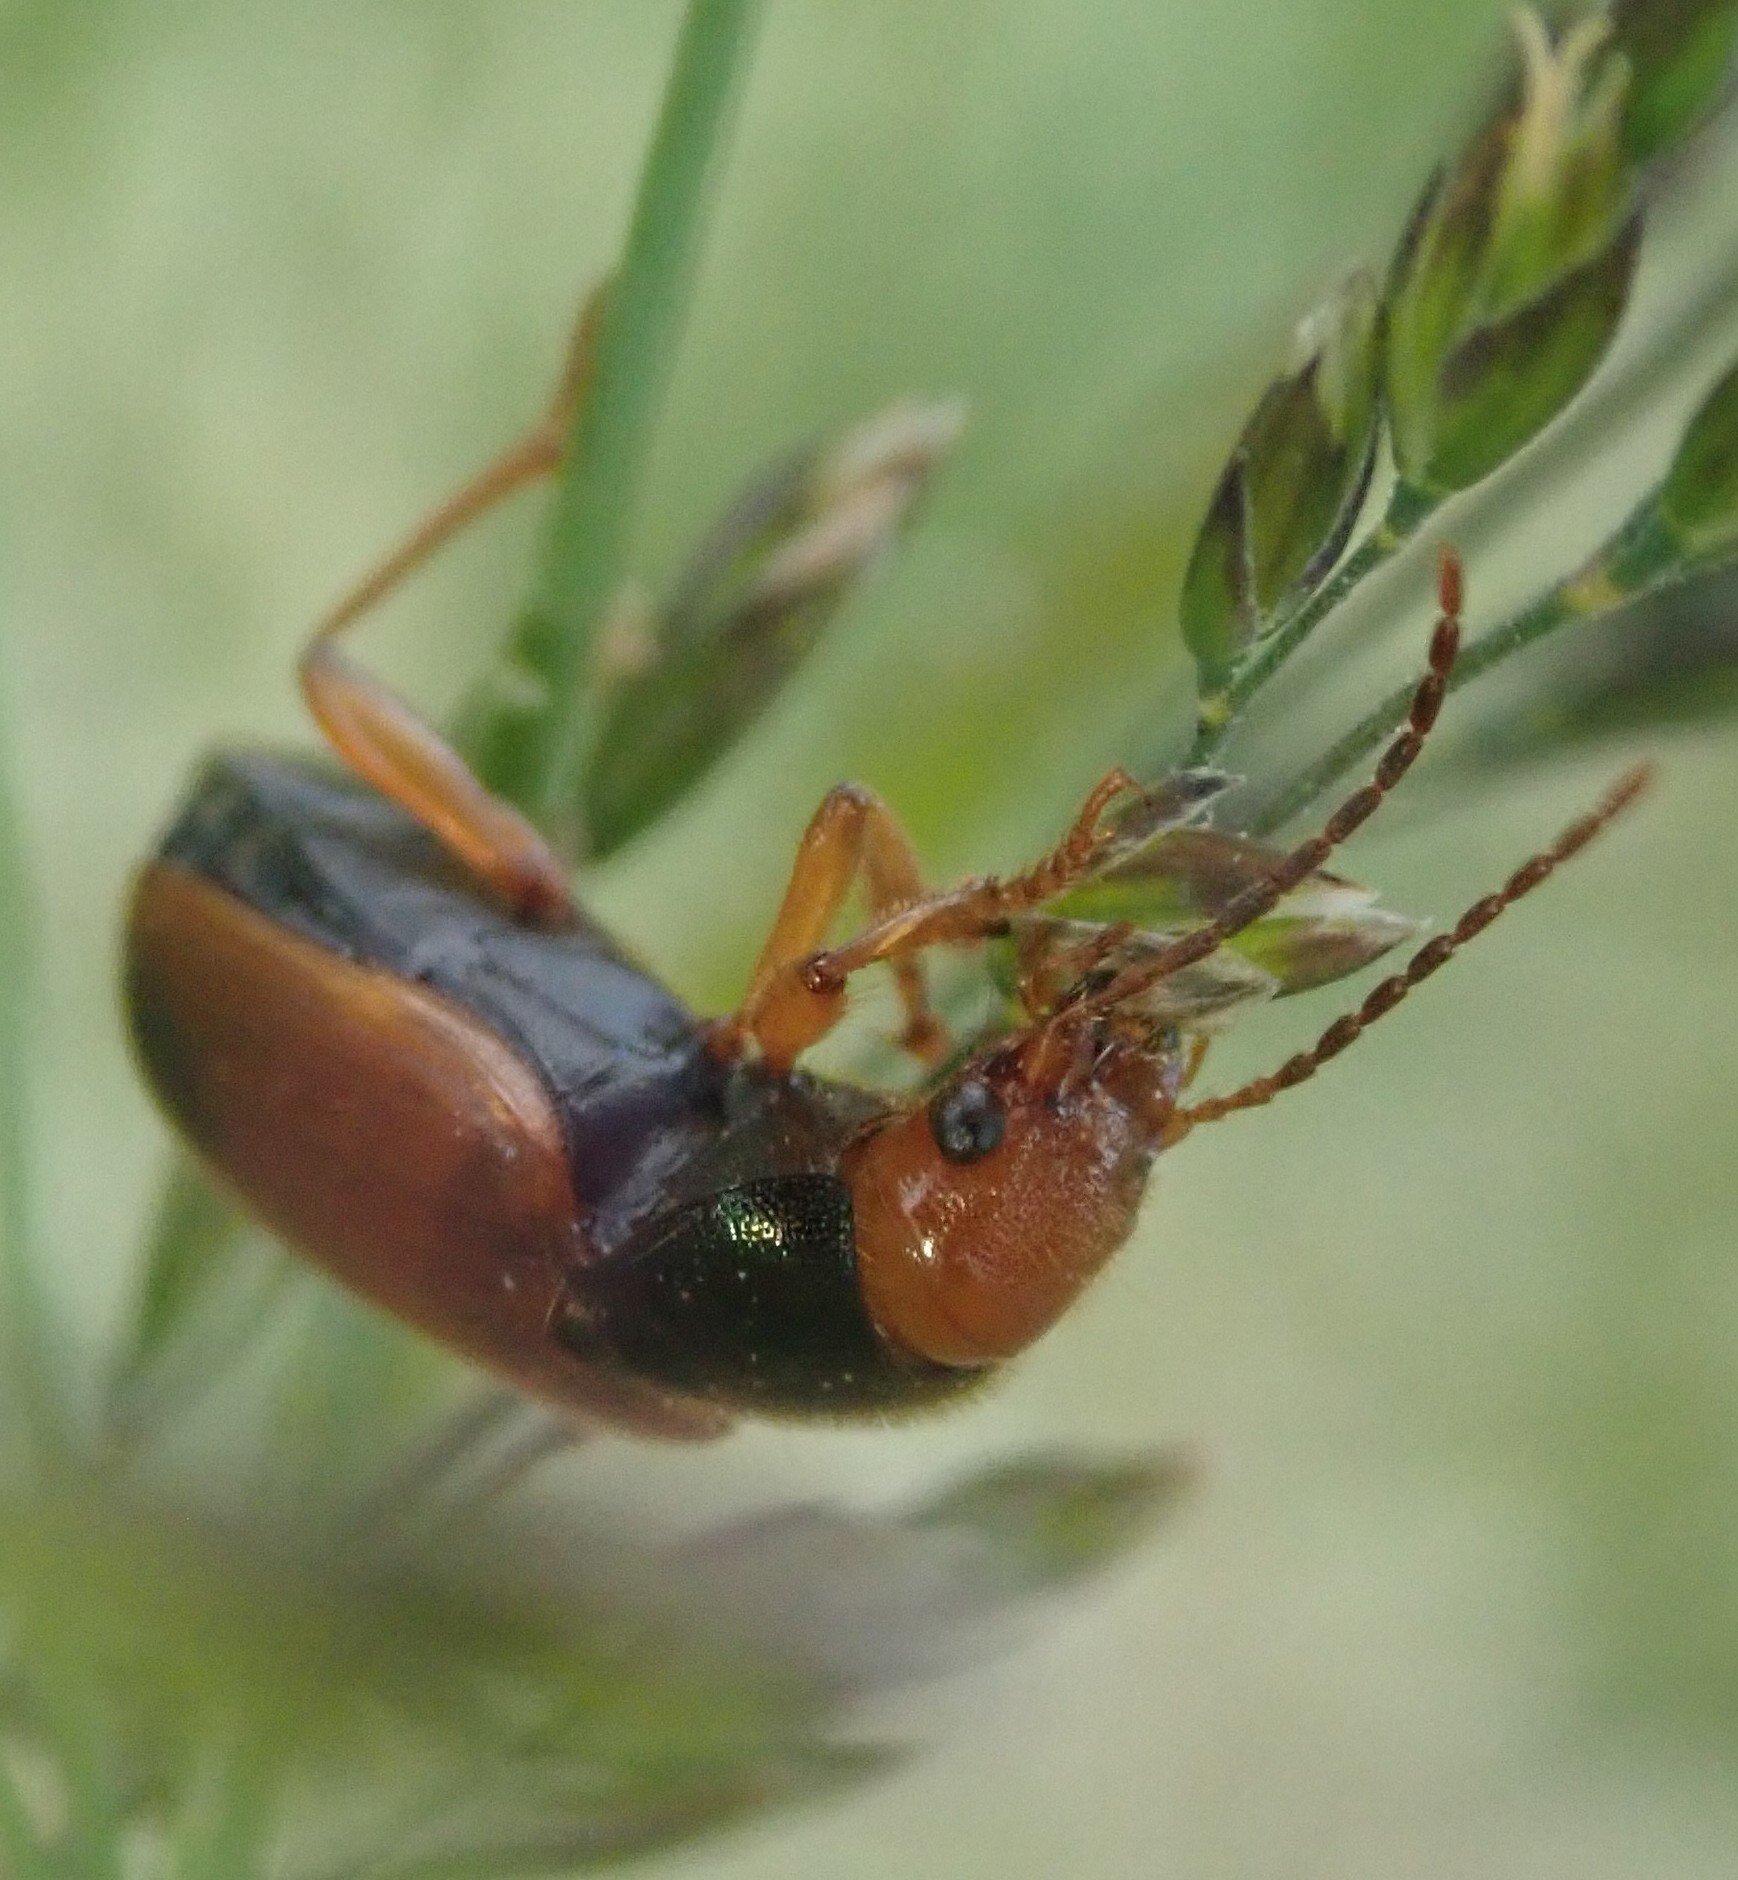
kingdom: Animalia
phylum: Arthropoda
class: Insecta
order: Coleoptera
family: Carabidae
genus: Diachromus
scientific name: Diachromus germanus
